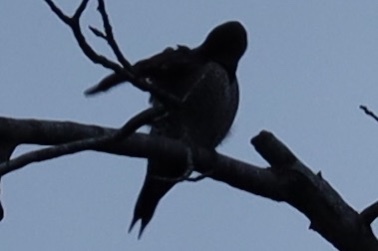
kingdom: Animalia
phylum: Chordata
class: Aves
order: Piciformes
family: Picidae
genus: Colaptes
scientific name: Colaptes auratus
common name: Northern flicker
